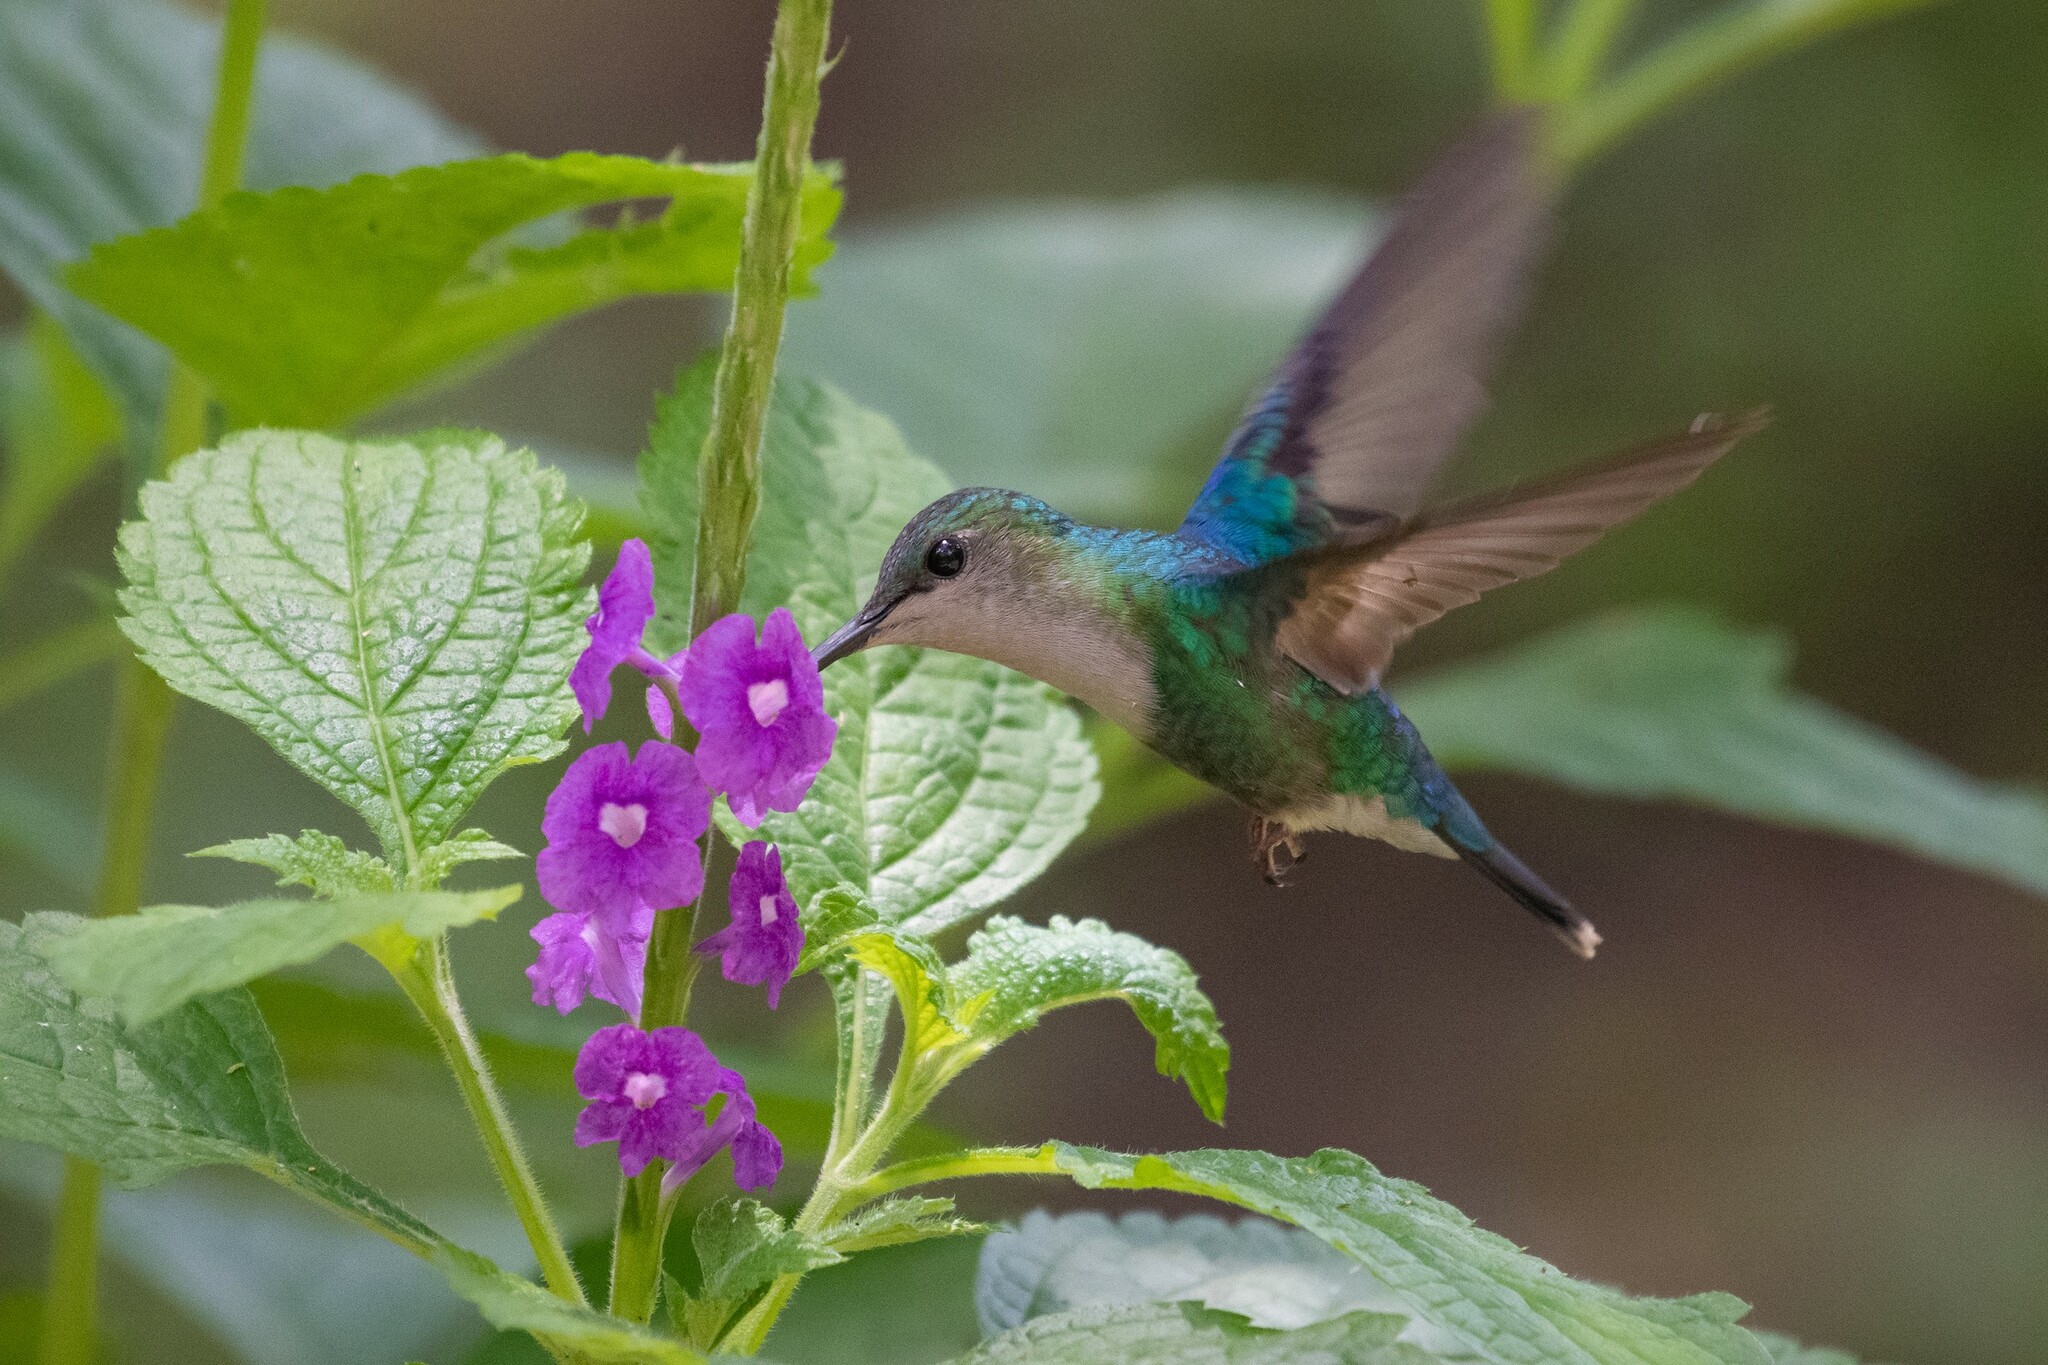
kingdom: Animalia
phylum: Chordata
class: Aves
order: Apodiformes
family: Trochilidae
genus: Thalurania
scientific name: Thalurania colombica
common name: Crowned woodnymph
